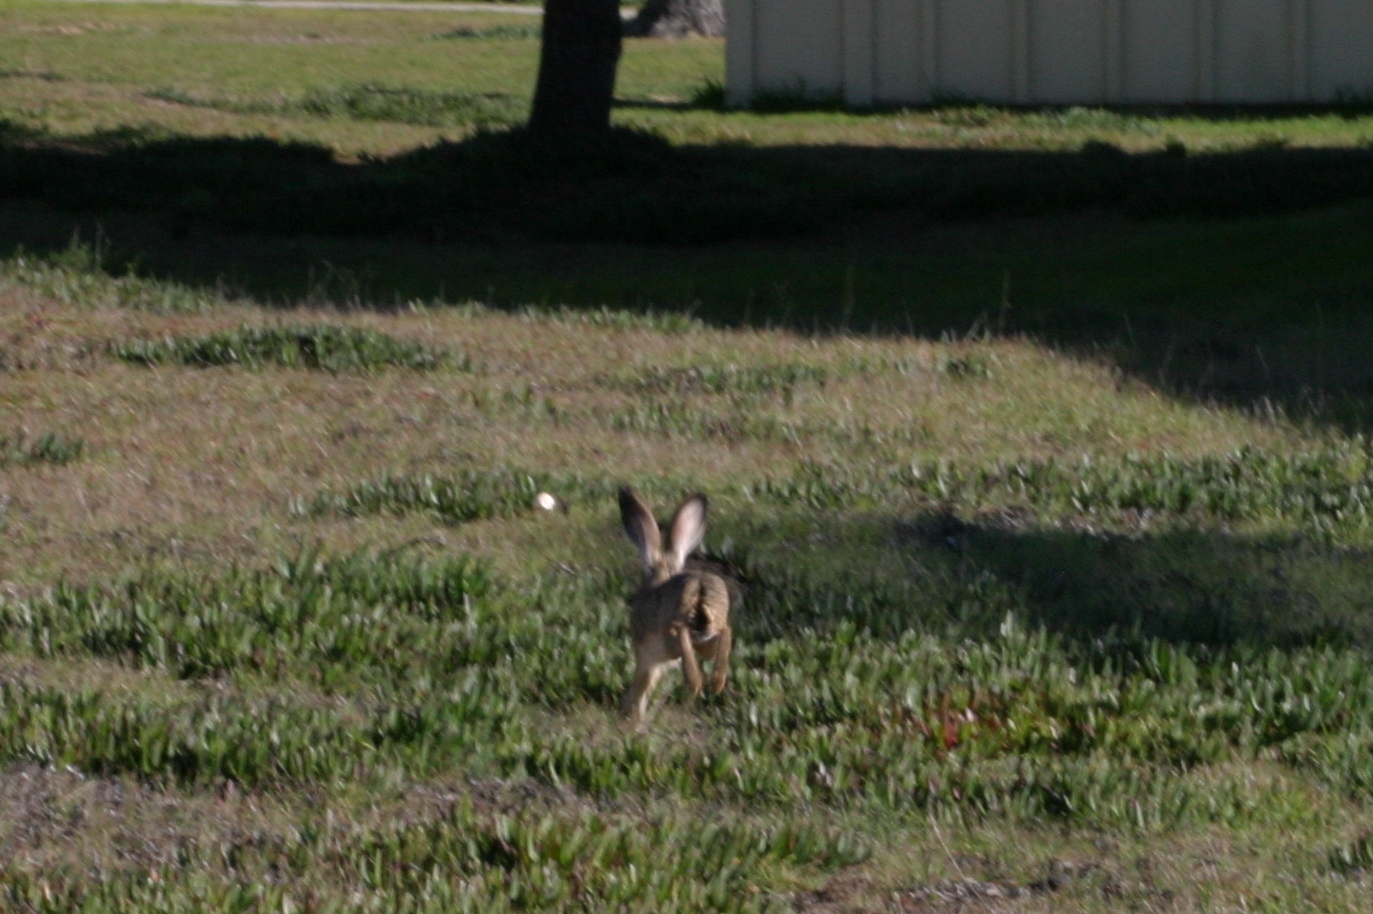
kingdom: Animalia
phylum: Chordata
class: Mammalia
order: Lagomorpha
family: Leporidae
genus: Lepus
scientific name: Lepus californicus
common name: Black-tailed jackrabbit
